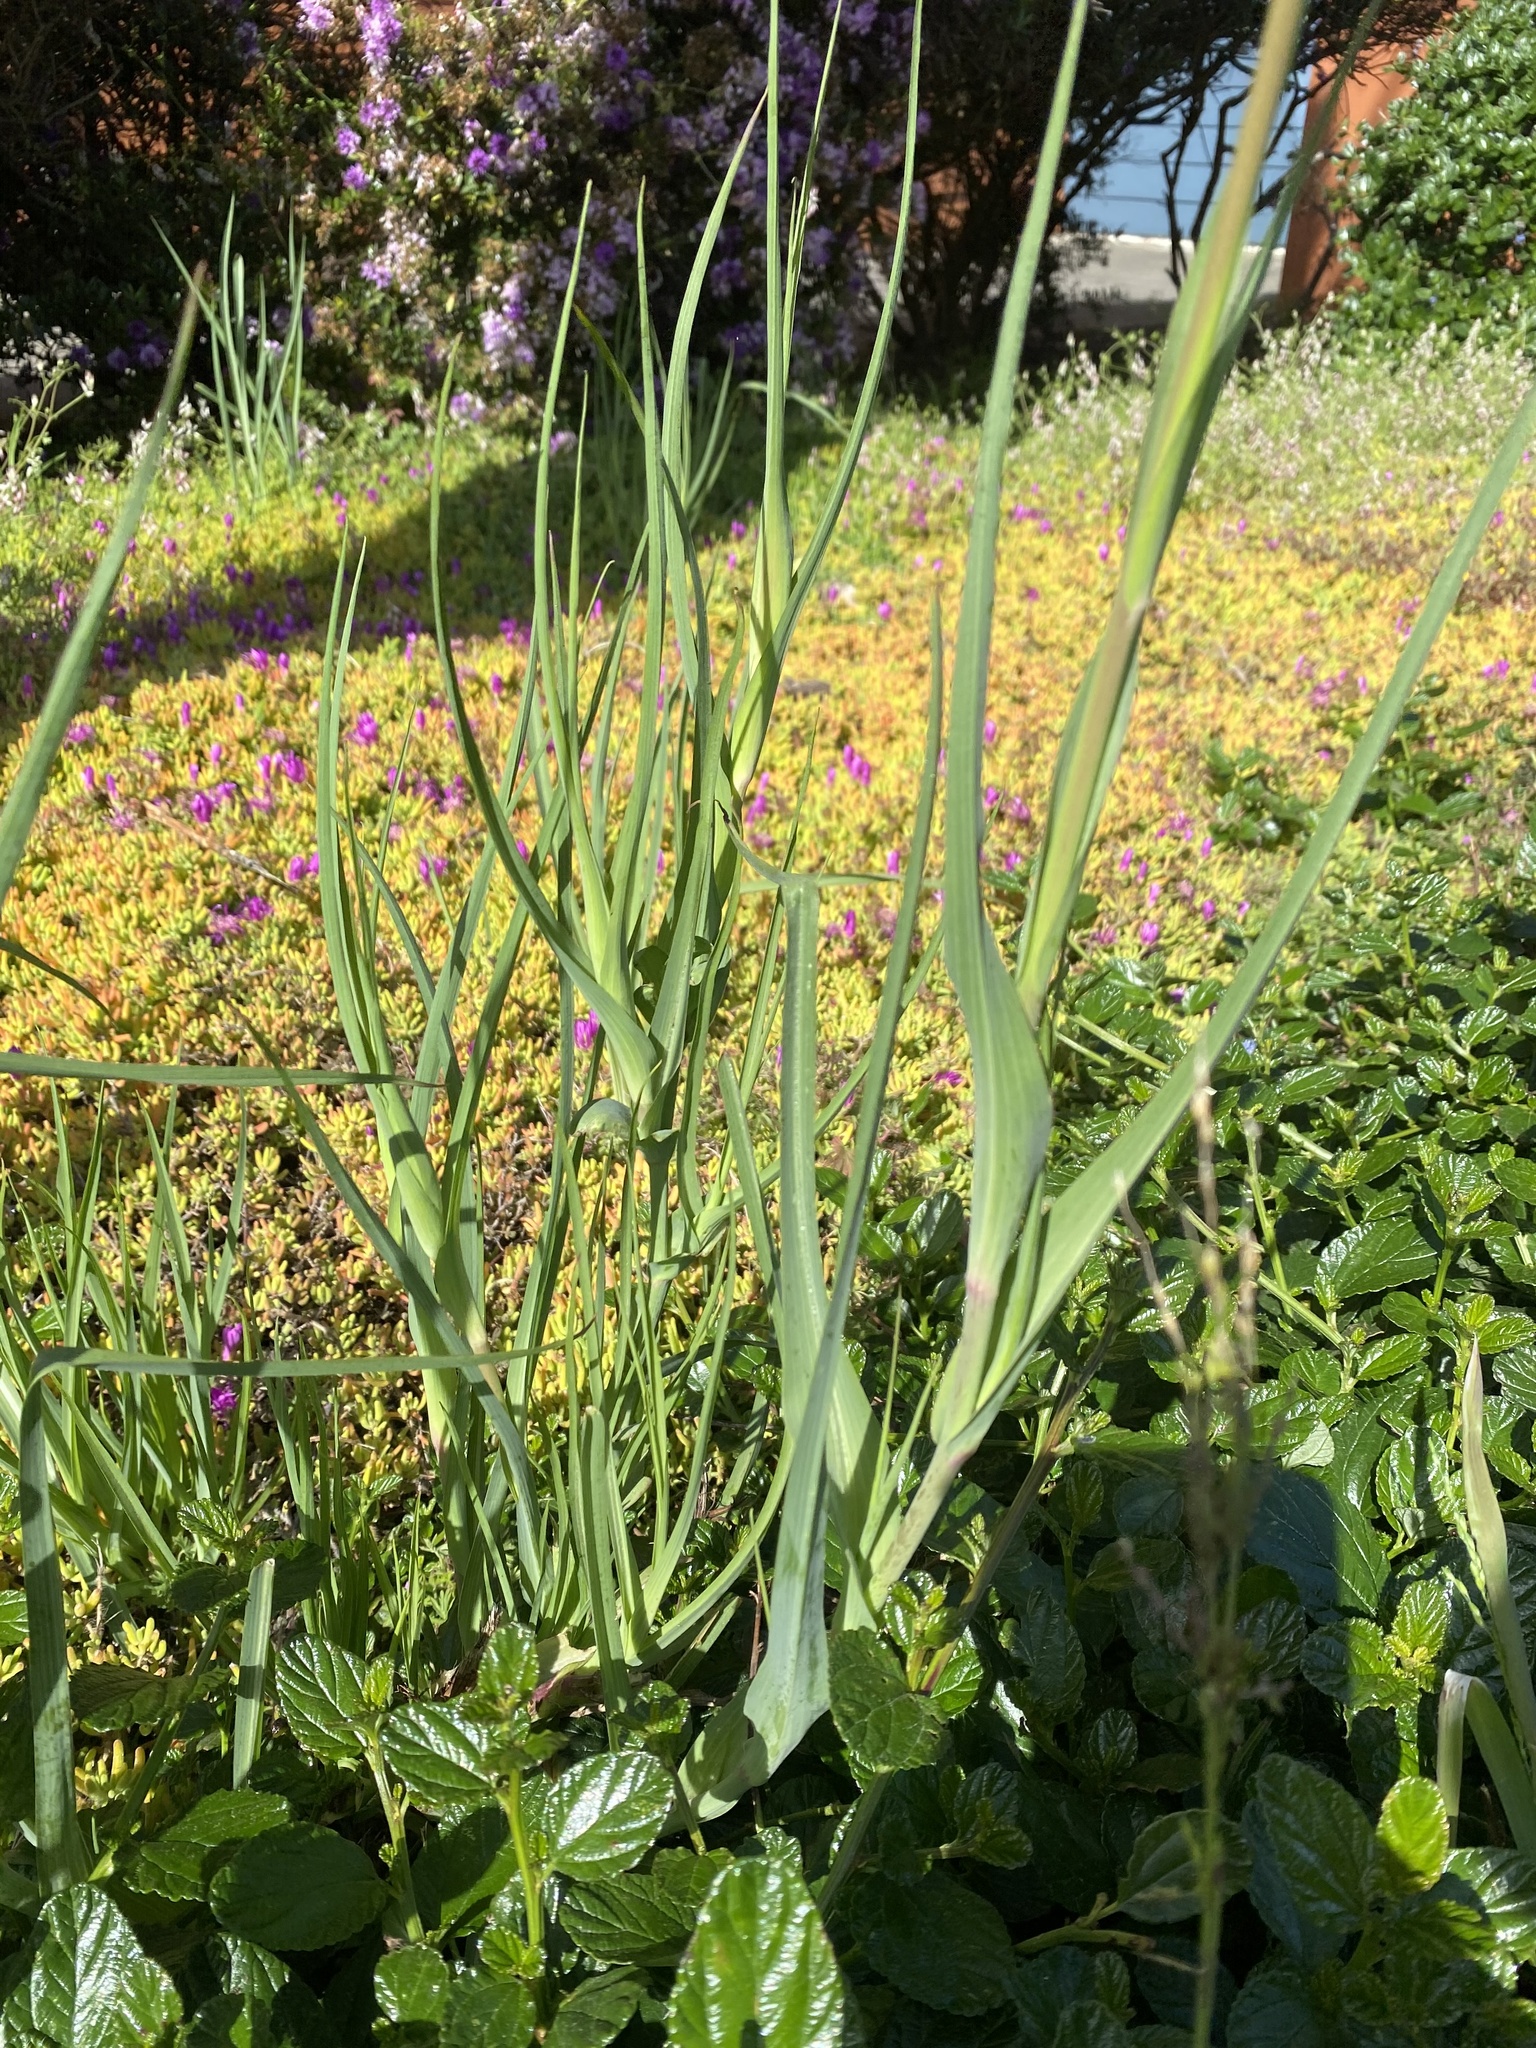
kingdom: Plantae
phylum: Tracheophyta
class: Magnoliopsida
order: Asterales
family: Asteraceae
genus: Tragopogon
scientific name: Tragopogon porrifolius
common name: Salsify
